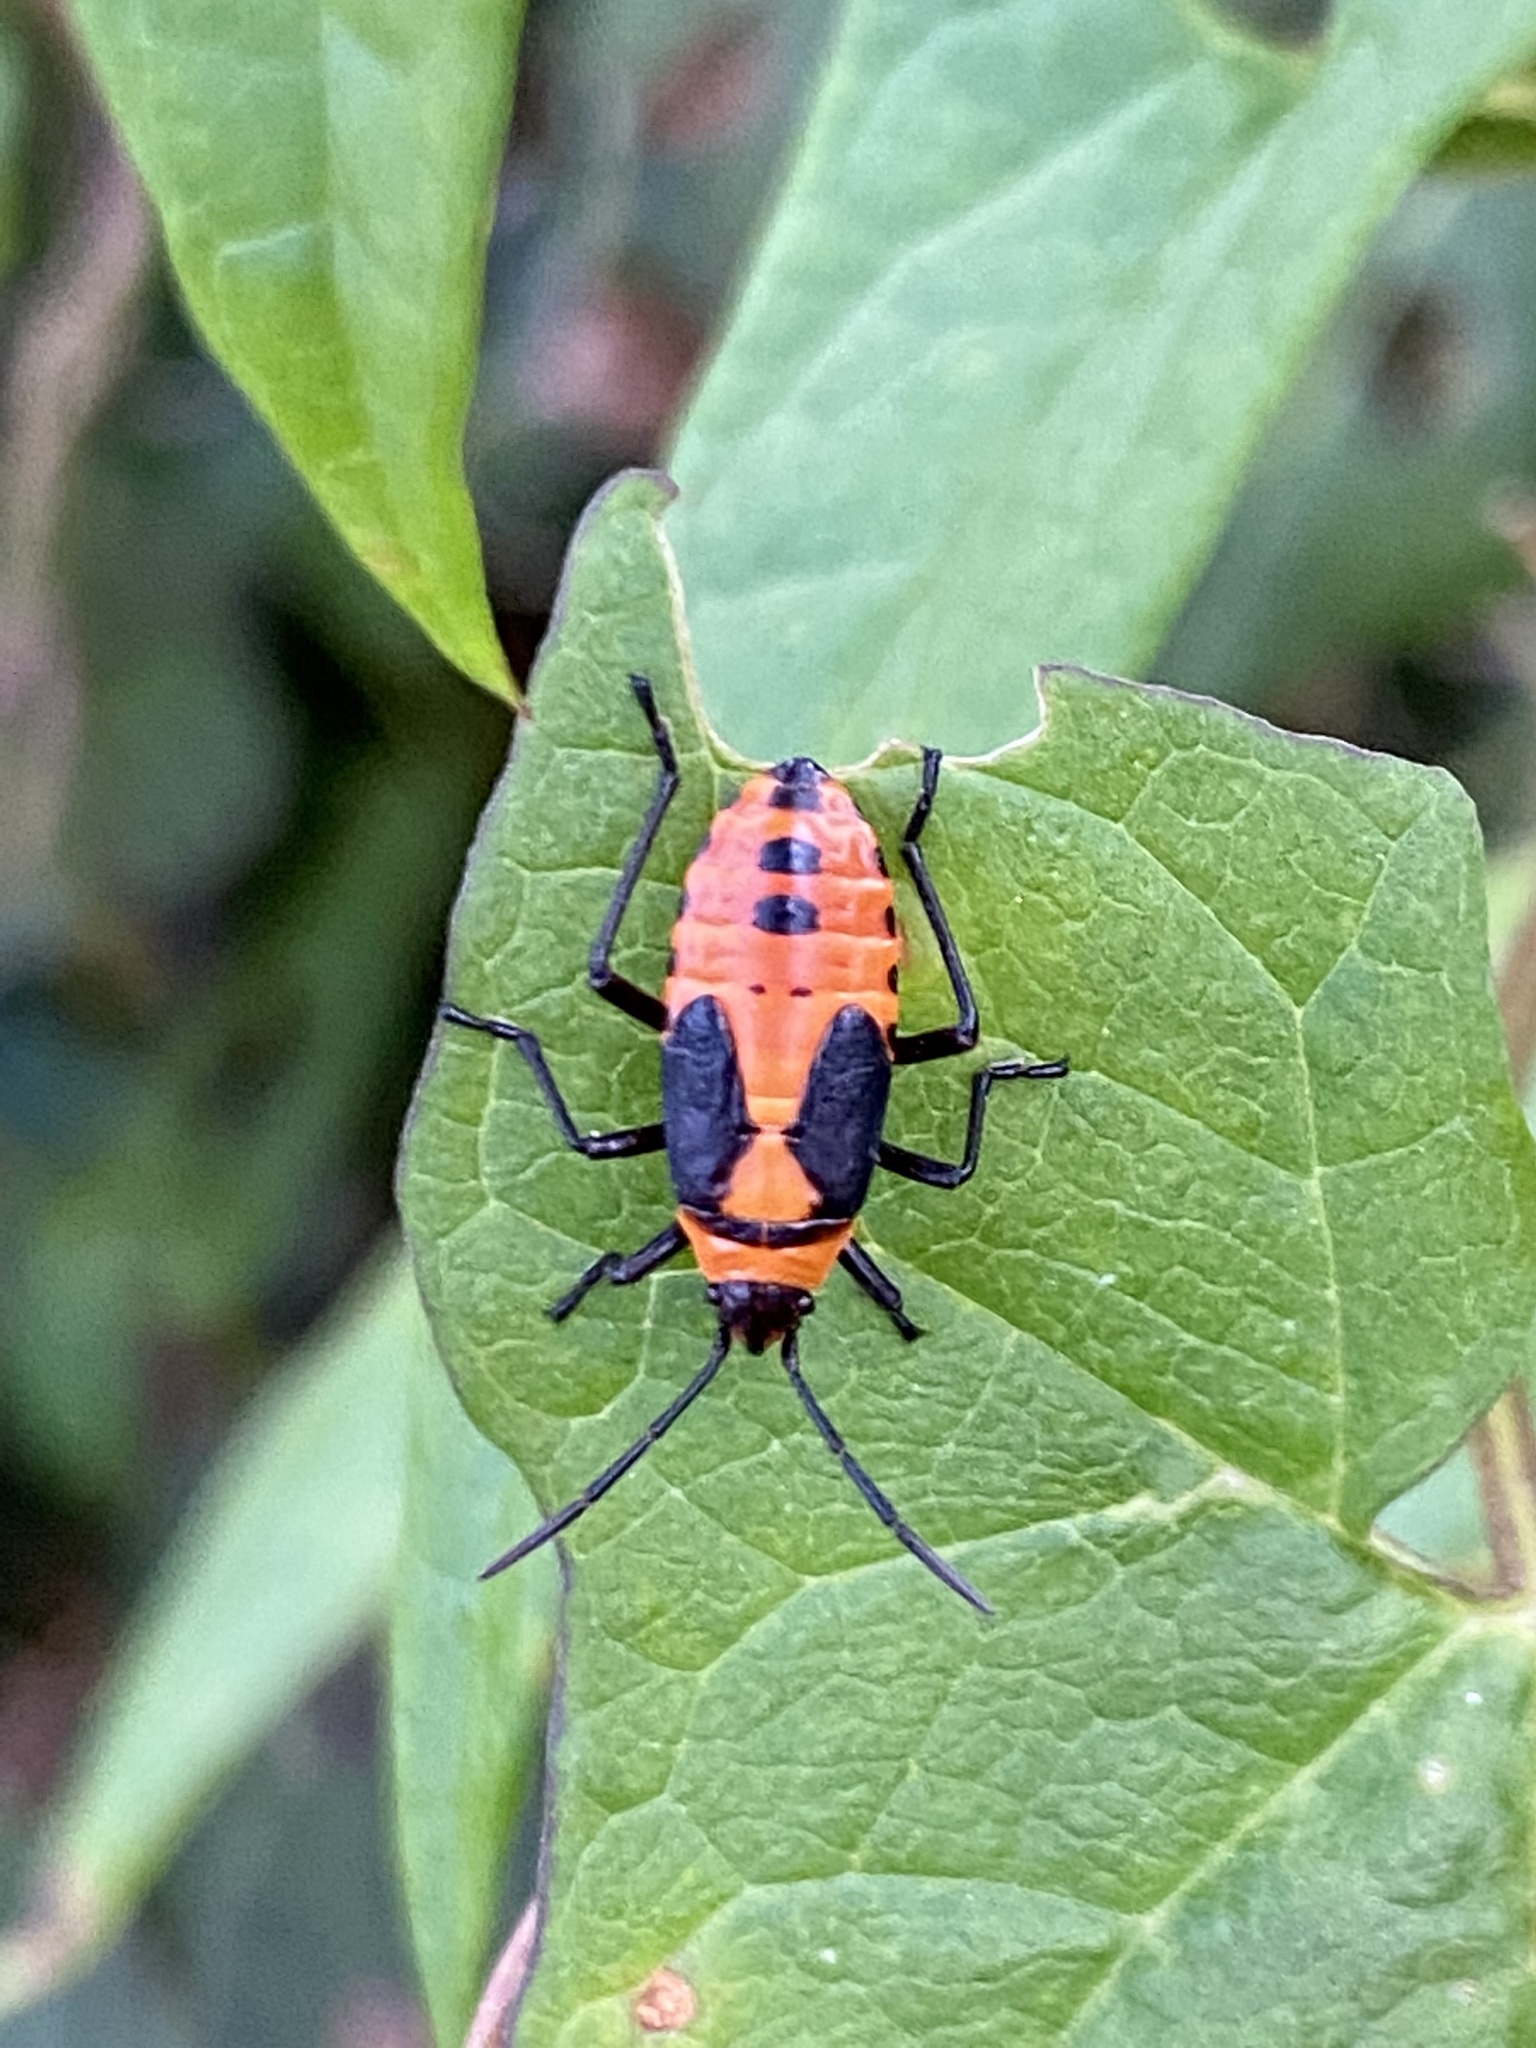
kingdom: Animalia
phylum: Arthropoda
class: Insecta
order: Hemiptera
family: Lygaeidae
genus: Oncopeltus
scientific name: Oncopeltus fasciatus
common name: Large milkweed bug
